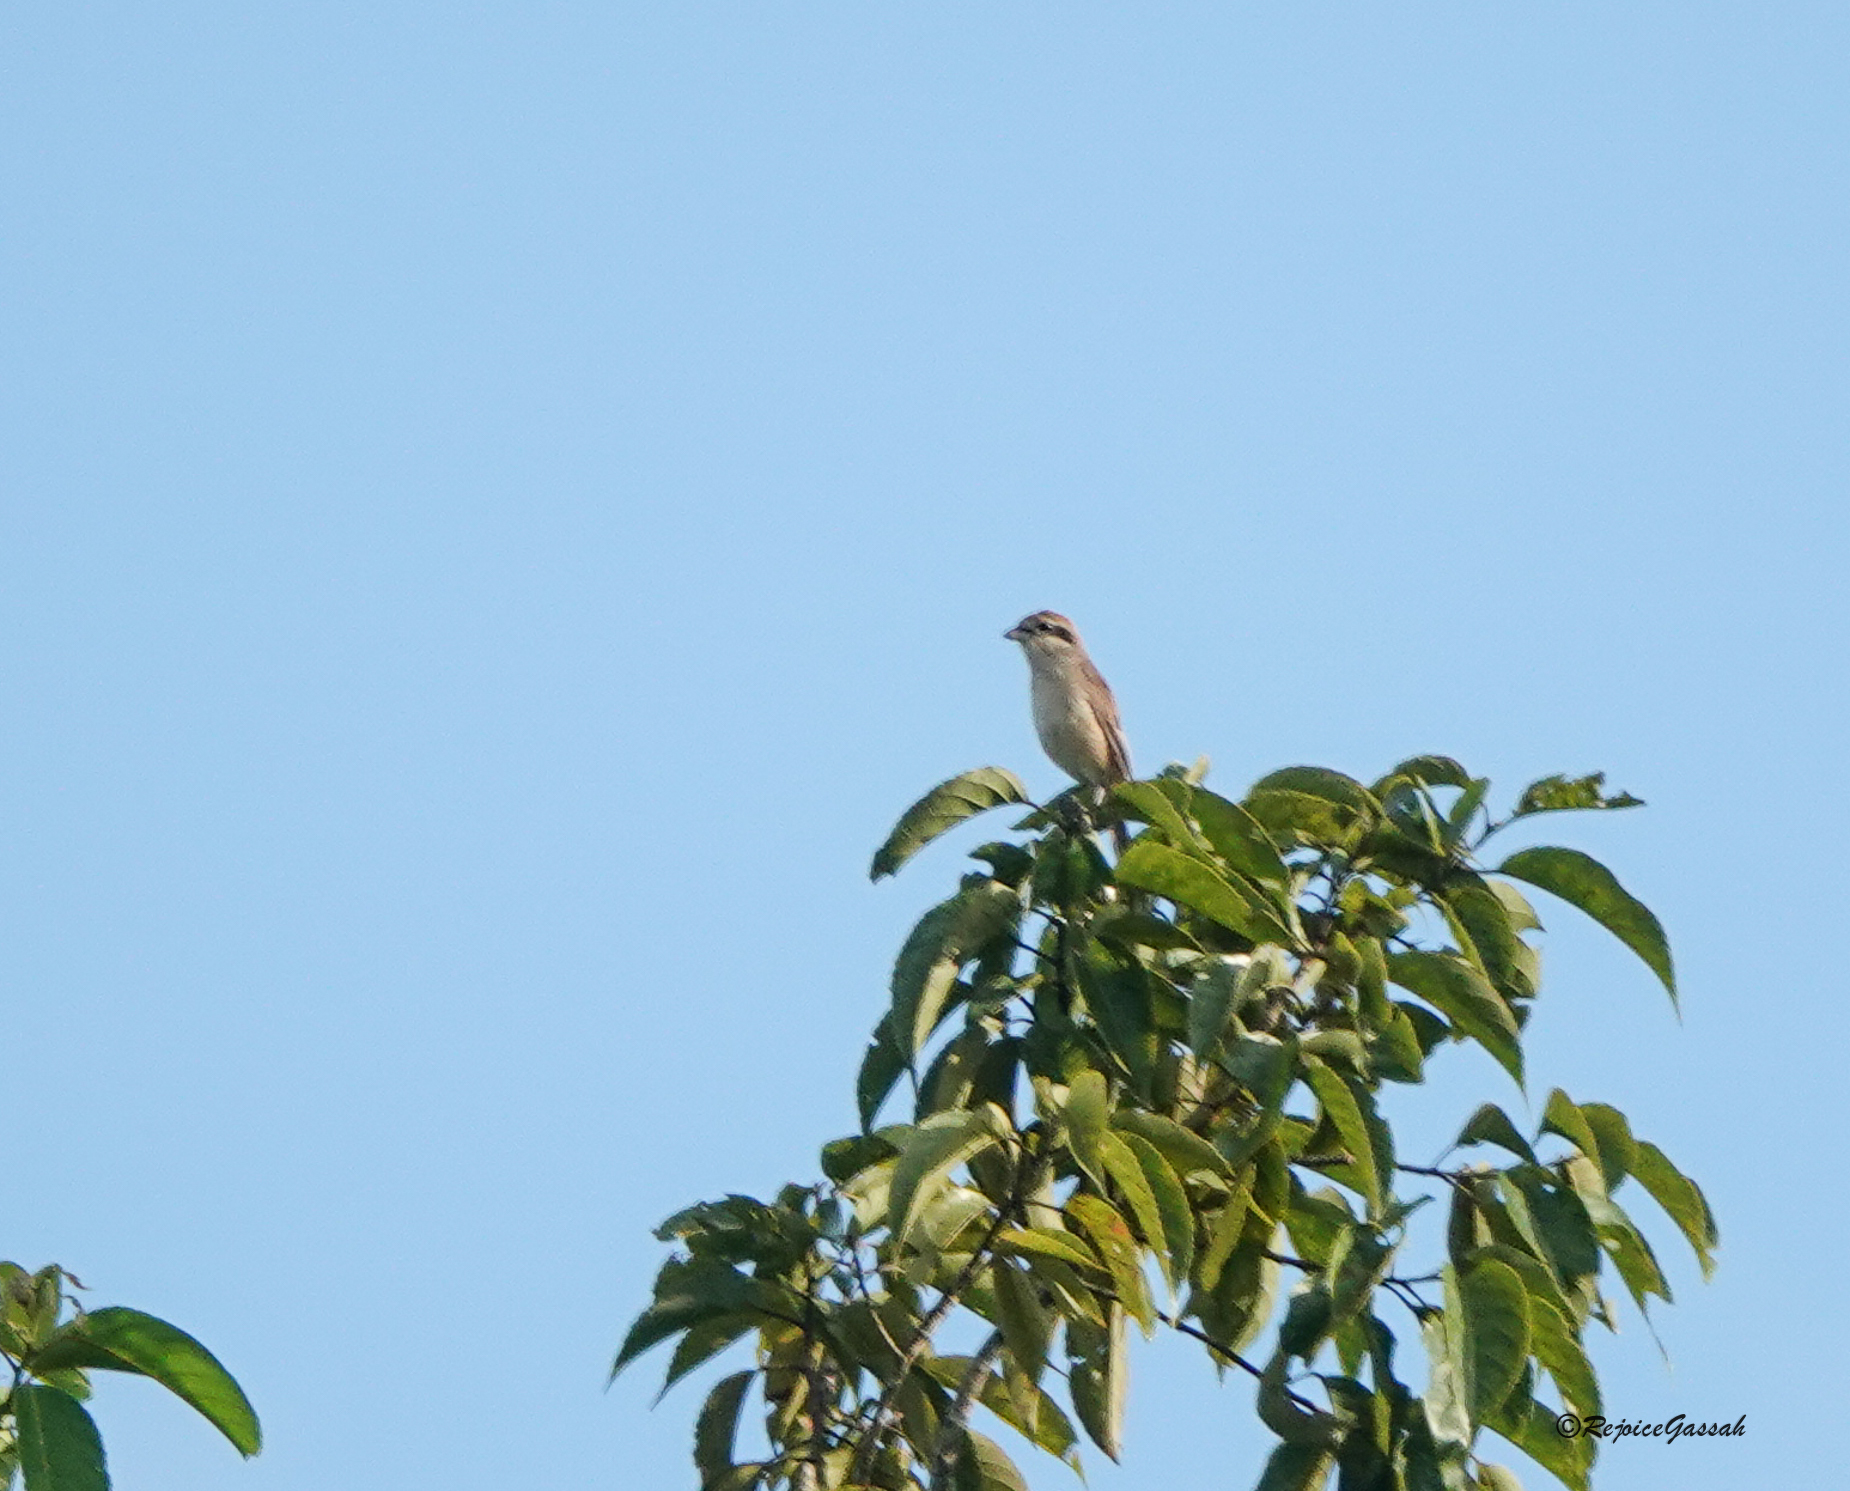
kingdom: Animalia
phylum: Chordata
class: Aves
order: Passeriformes
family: Laniidae
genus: Lanius
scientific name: Lanius cristatus
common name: Brown shrike
